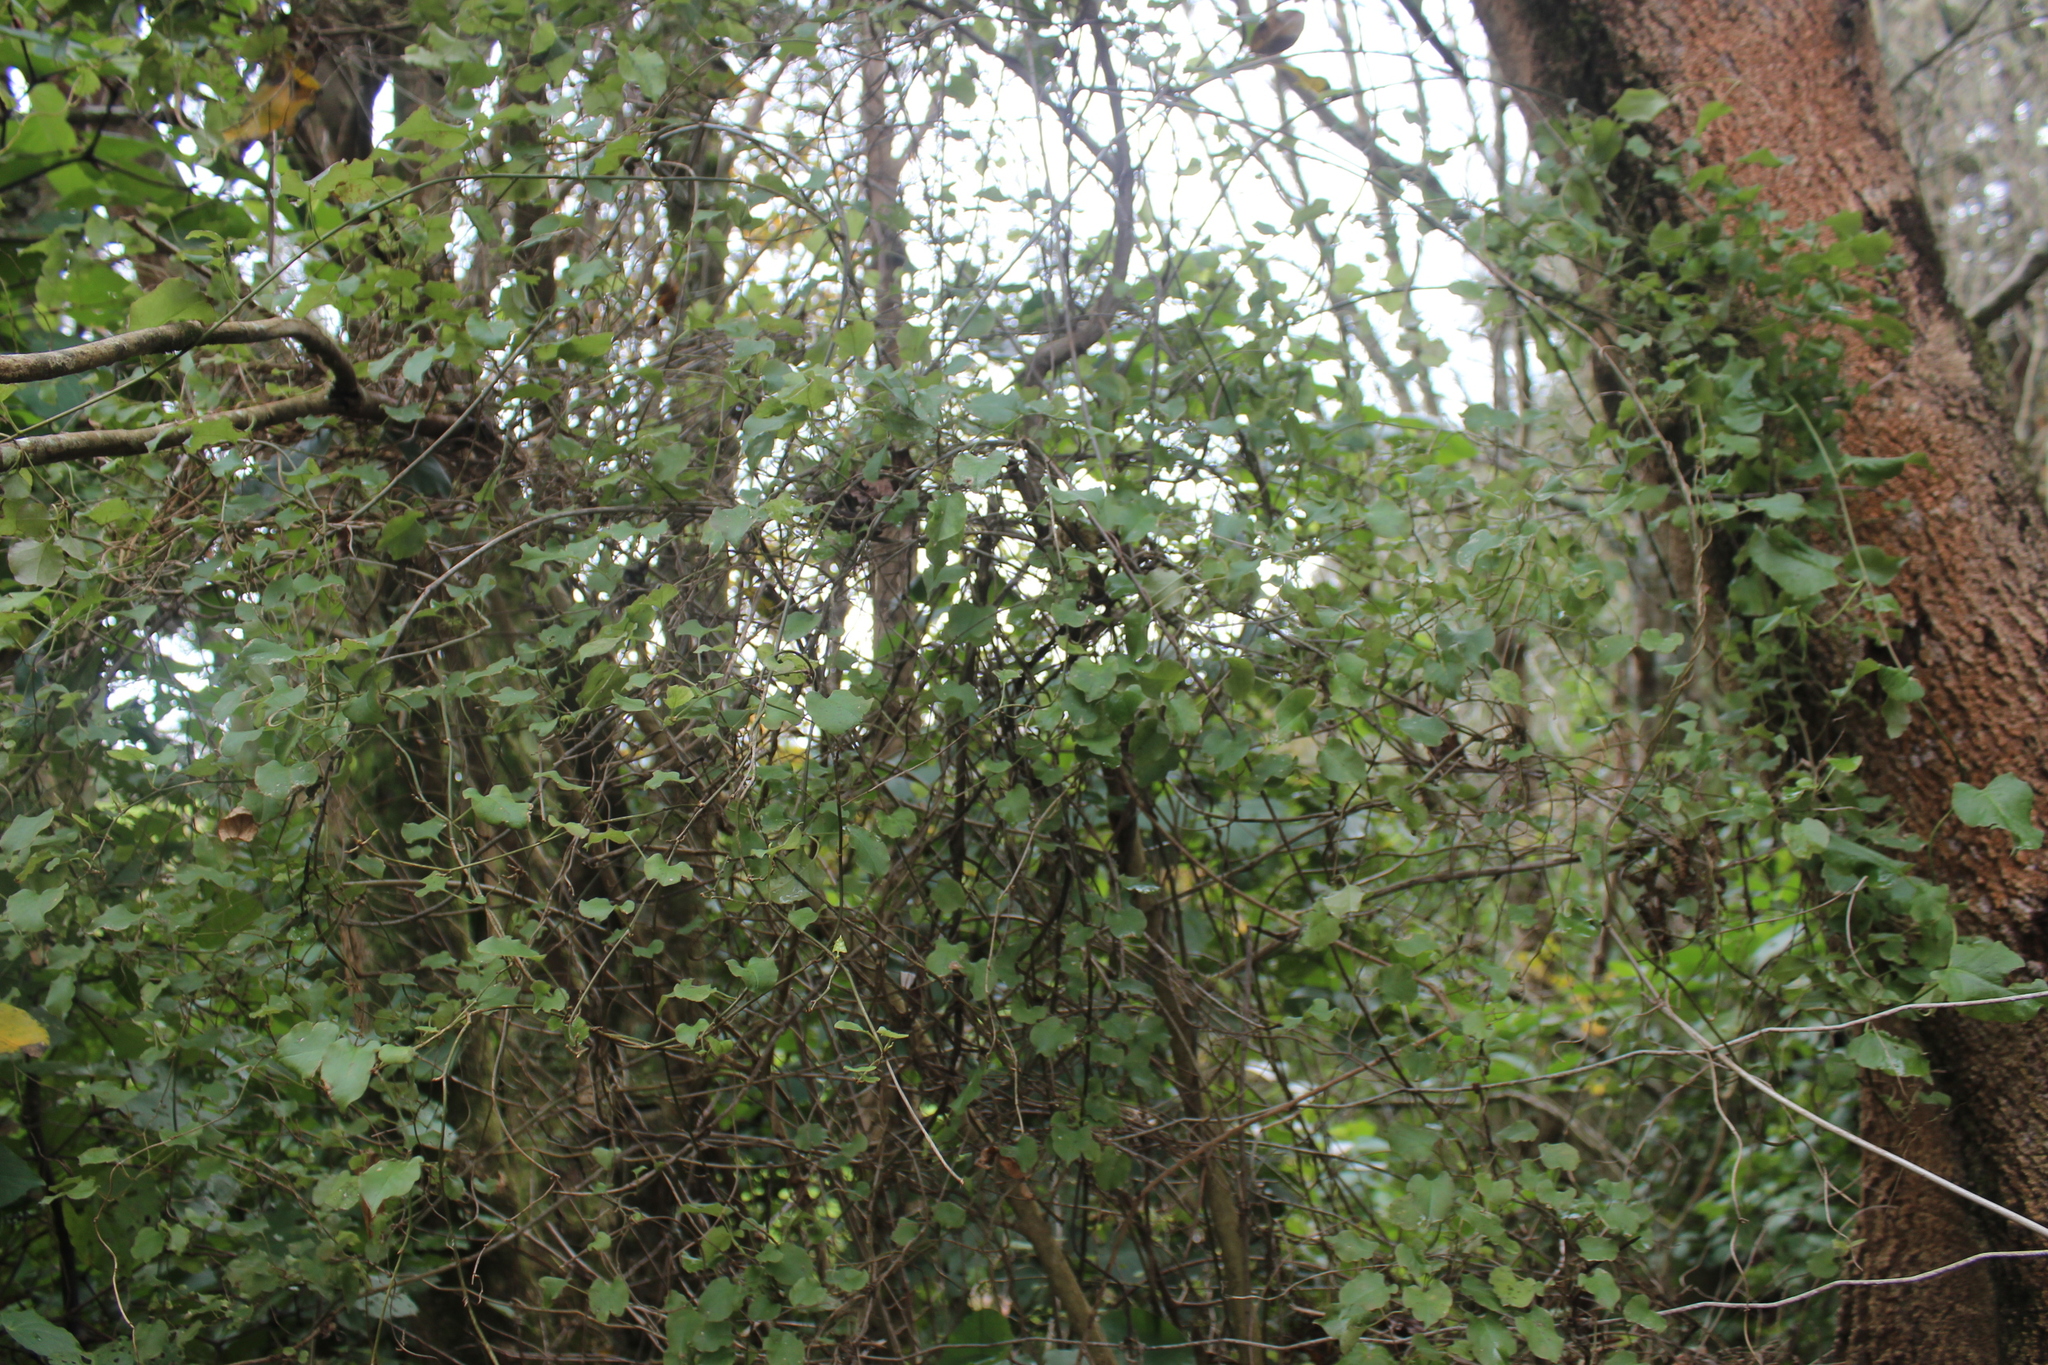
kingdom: Plantae
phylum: Tracheophyta
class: Magnoliopsida
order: Caryophyllales
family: Polygonaceae
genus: Muehlenbeckia
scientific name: Muehlenbeckia australis
